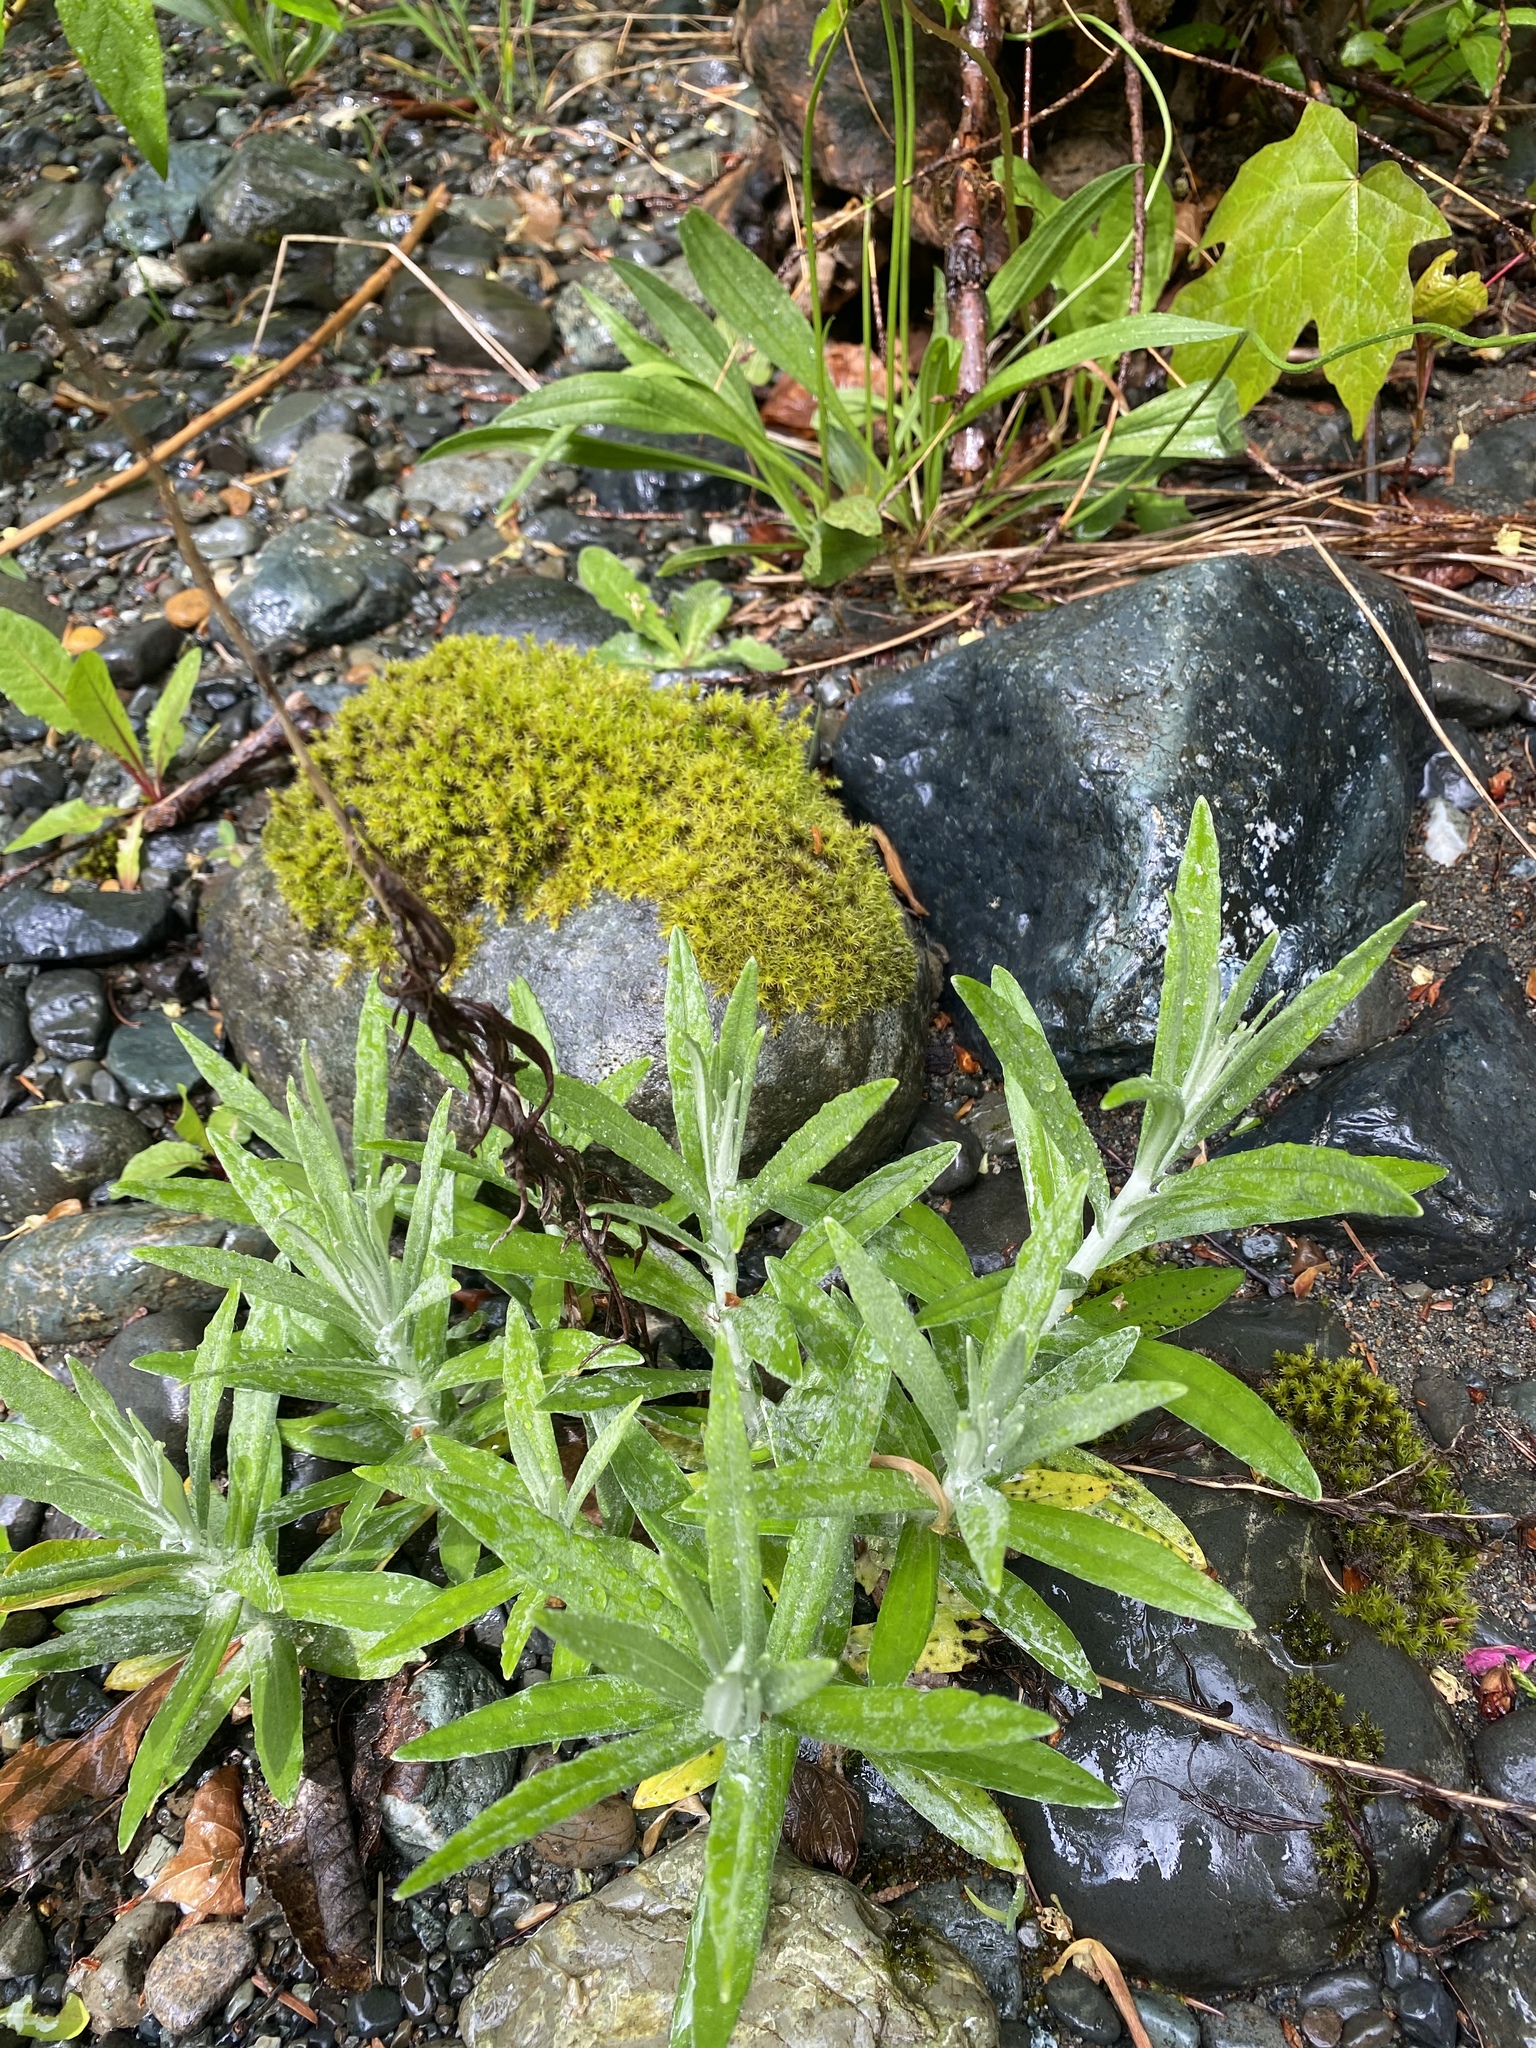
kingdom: Plantae
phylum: Tracheophyta
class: Magnoliopsida
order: Asterales
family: Asteraceae
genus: Anaphalis
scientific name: Anaphalis margaritacea
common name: Pearly everlasting
